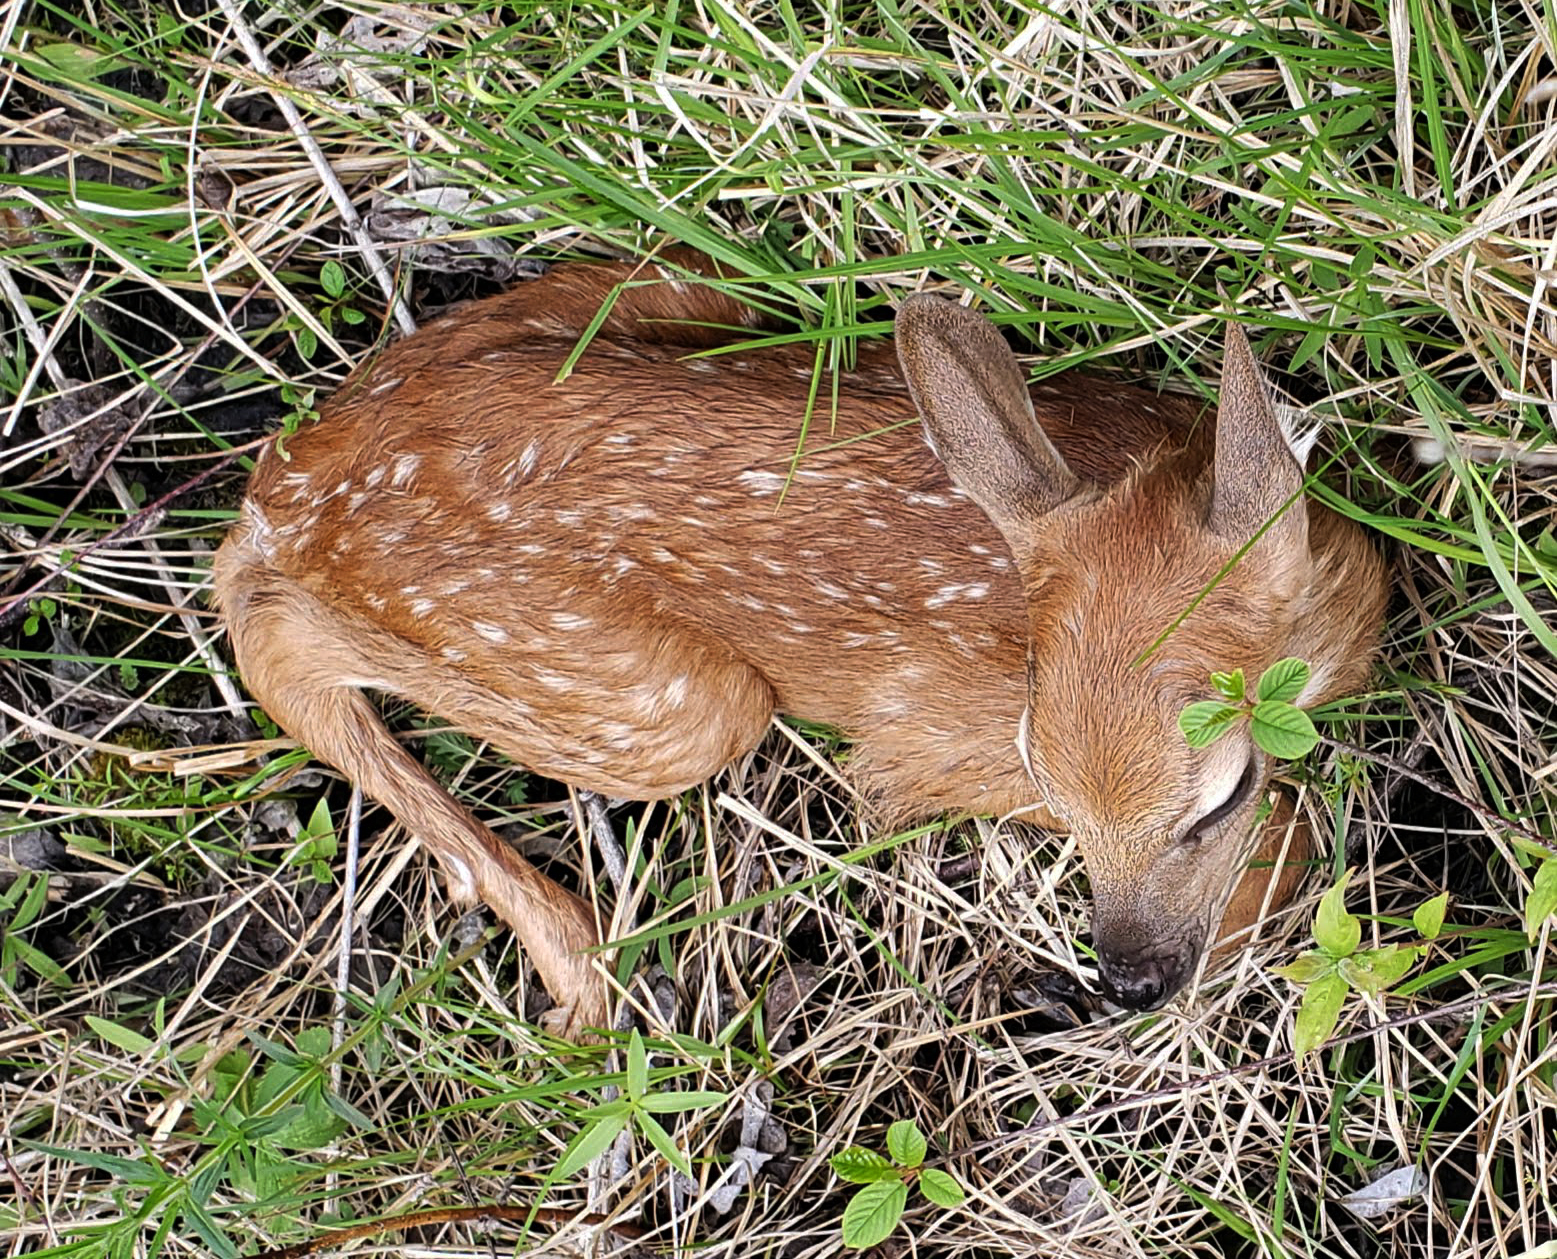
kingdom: Animalia
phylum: Chordata
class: Mammalia
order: Artiodactyla
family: Cervidae
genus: Odocoileus
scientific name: Odocoileus virginianus
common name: White-tailed deer
